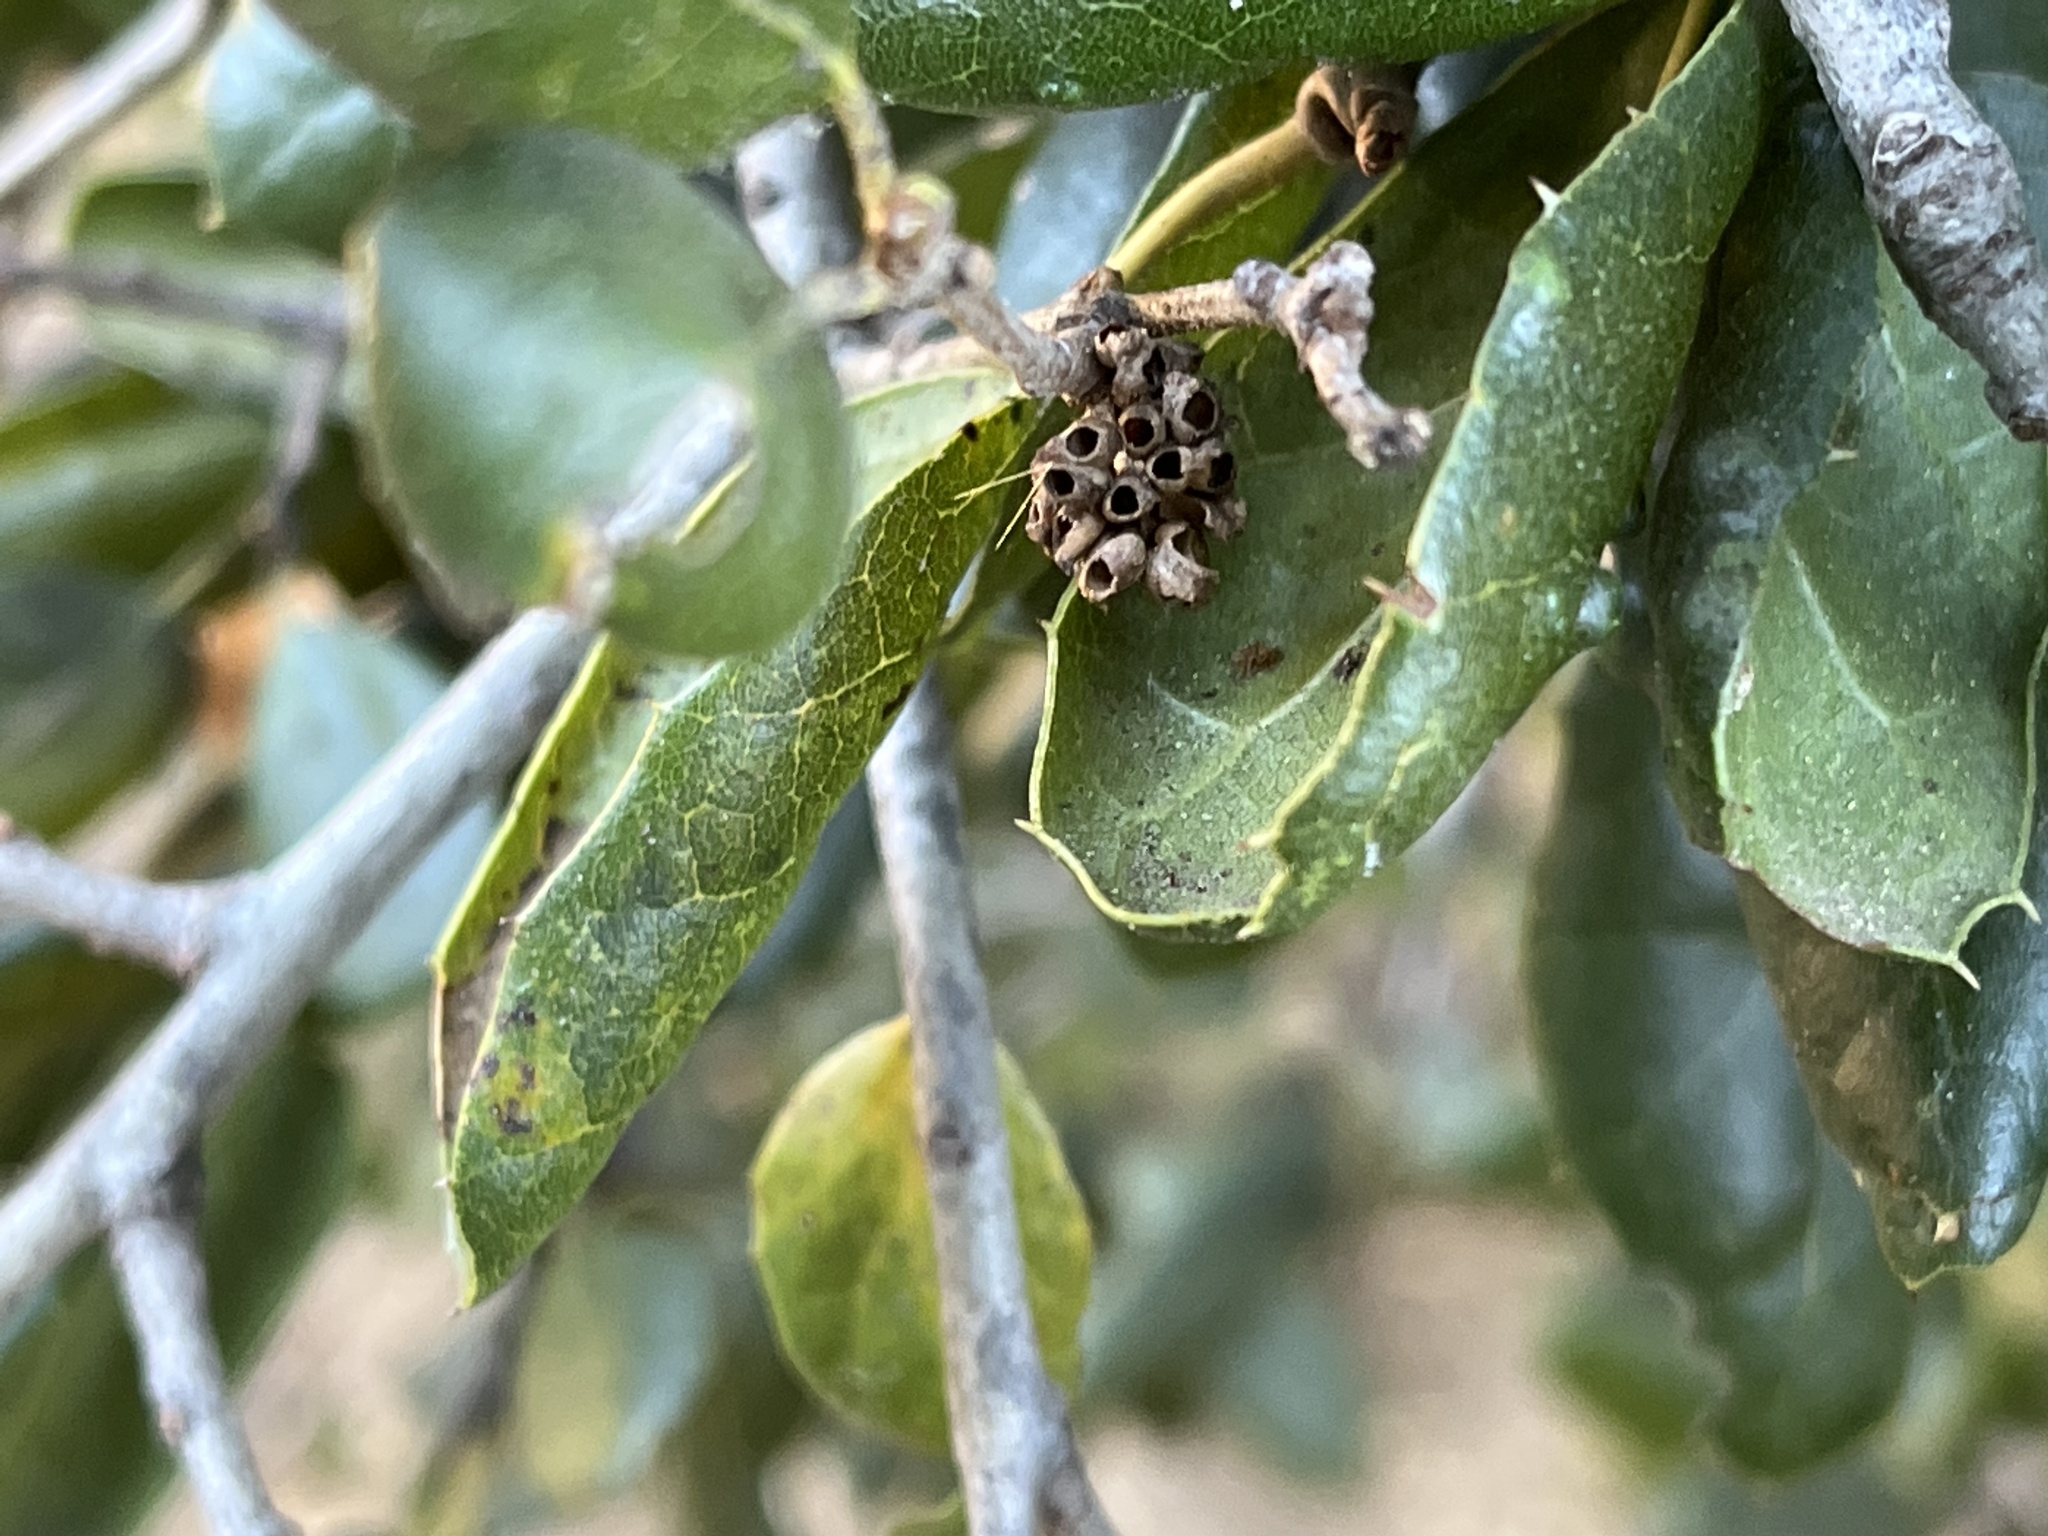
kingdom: Animalia
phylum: Arthropoda
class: Insecta
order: Hymenoptera
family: Cynipidae
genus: Callirhytis
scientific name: Callirhytis
